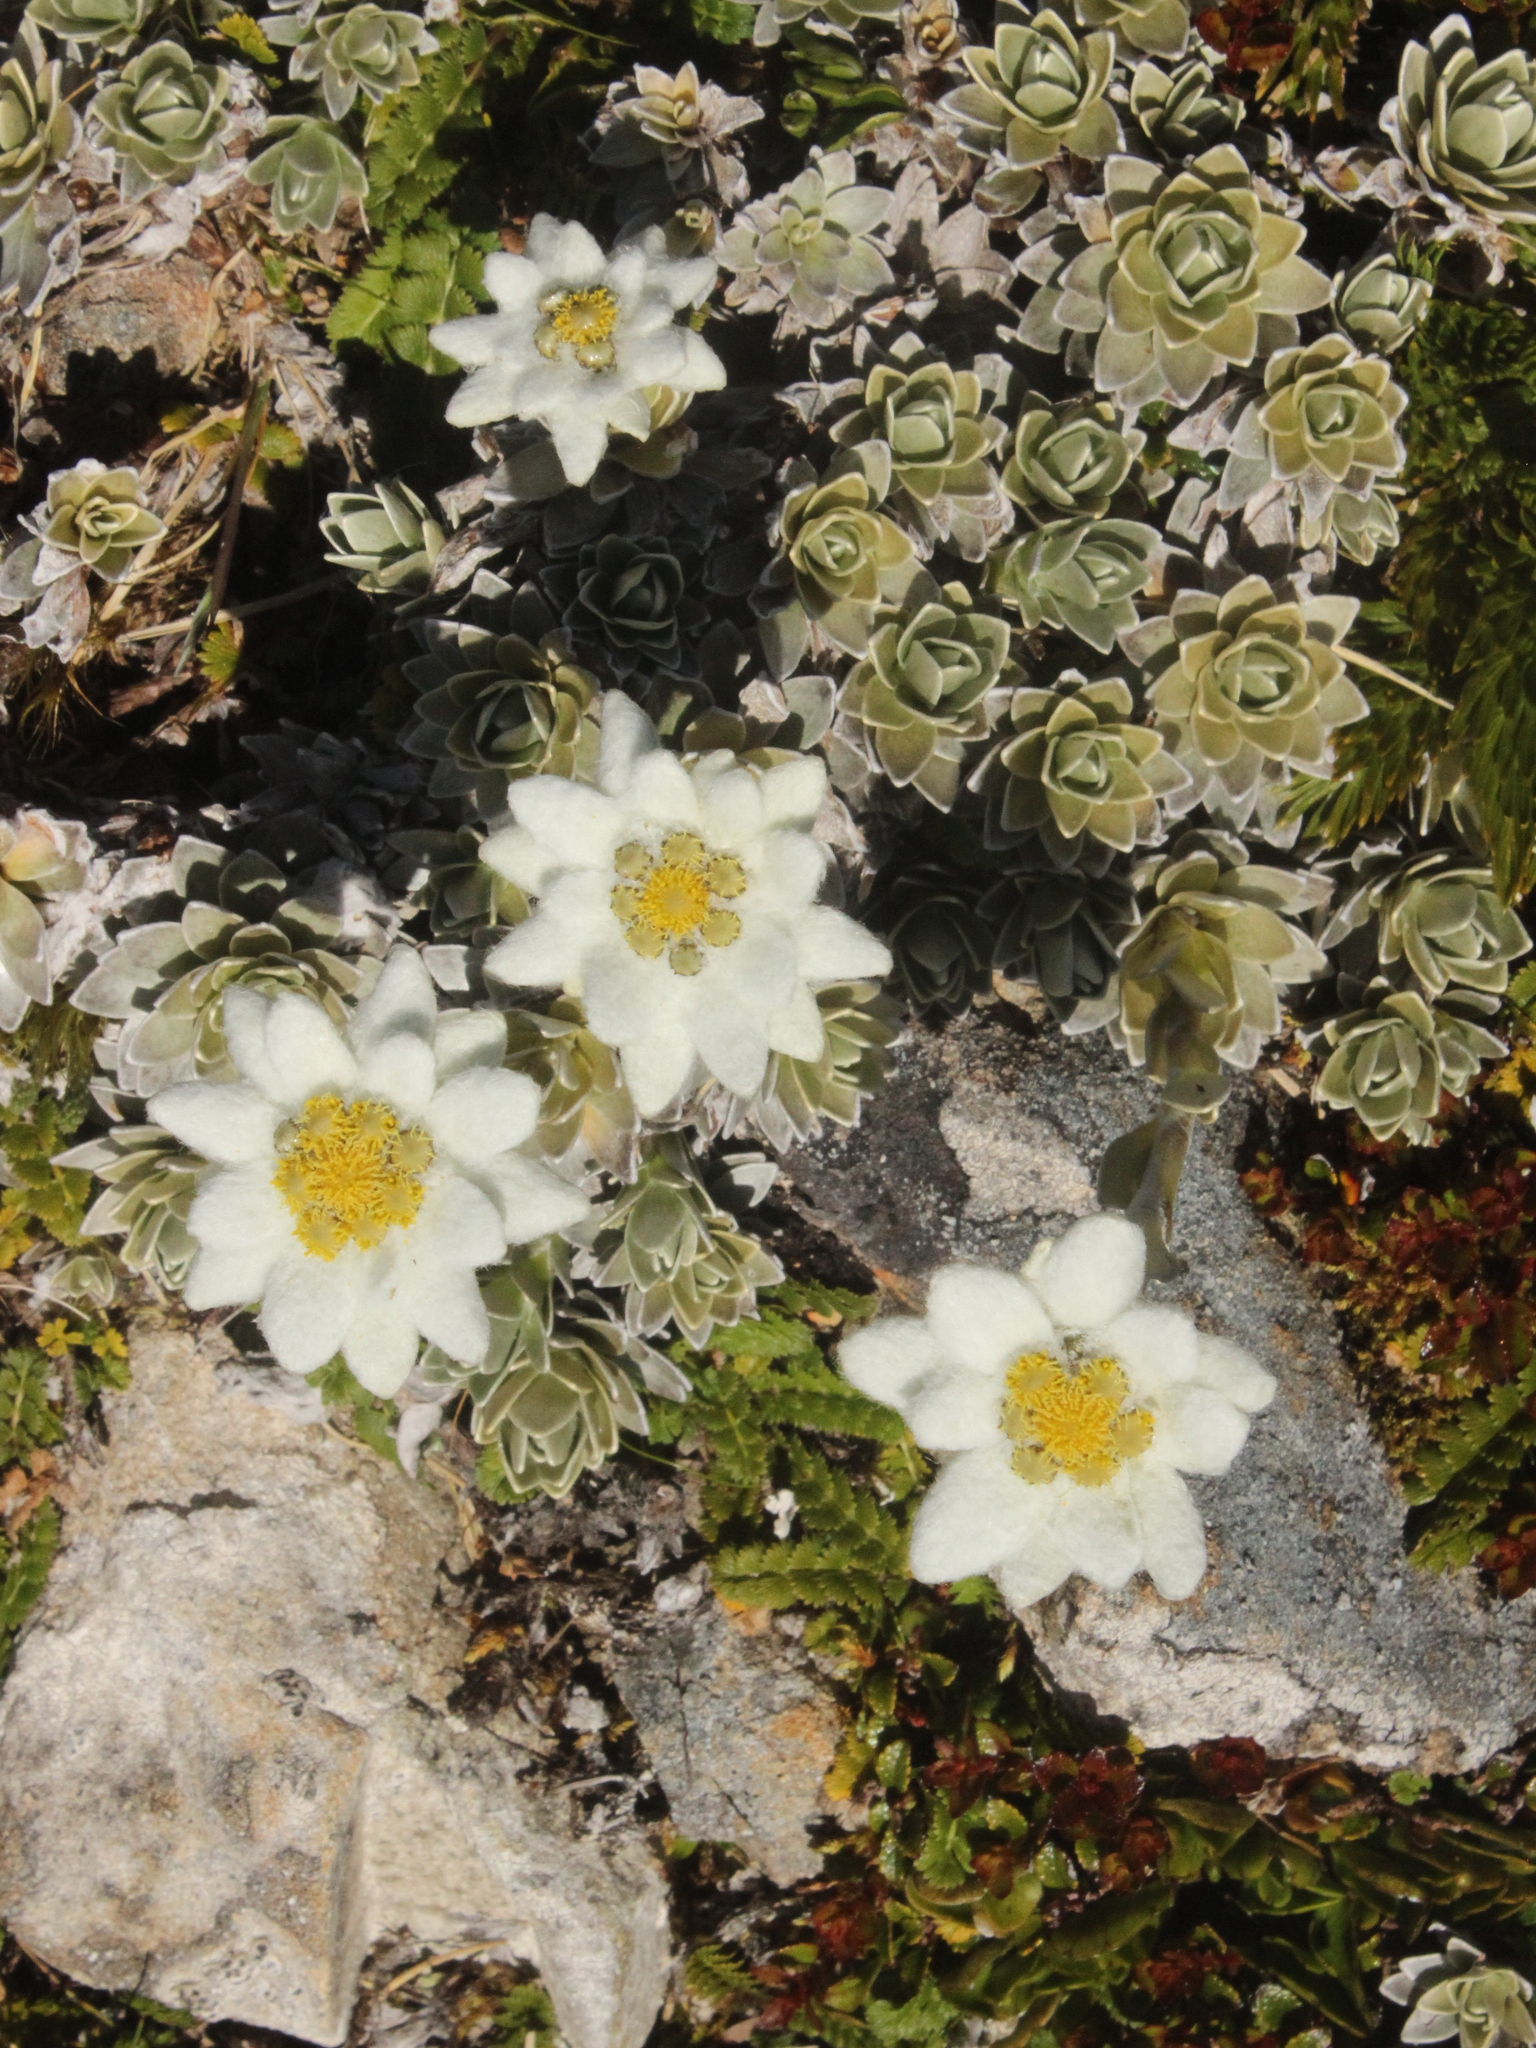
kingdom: Plantae
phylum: Tracheophyta
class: Magnoliopsida
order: Asterales
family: Asteraceae
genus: Leucogenes
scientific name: Leucogenes leontopodium
